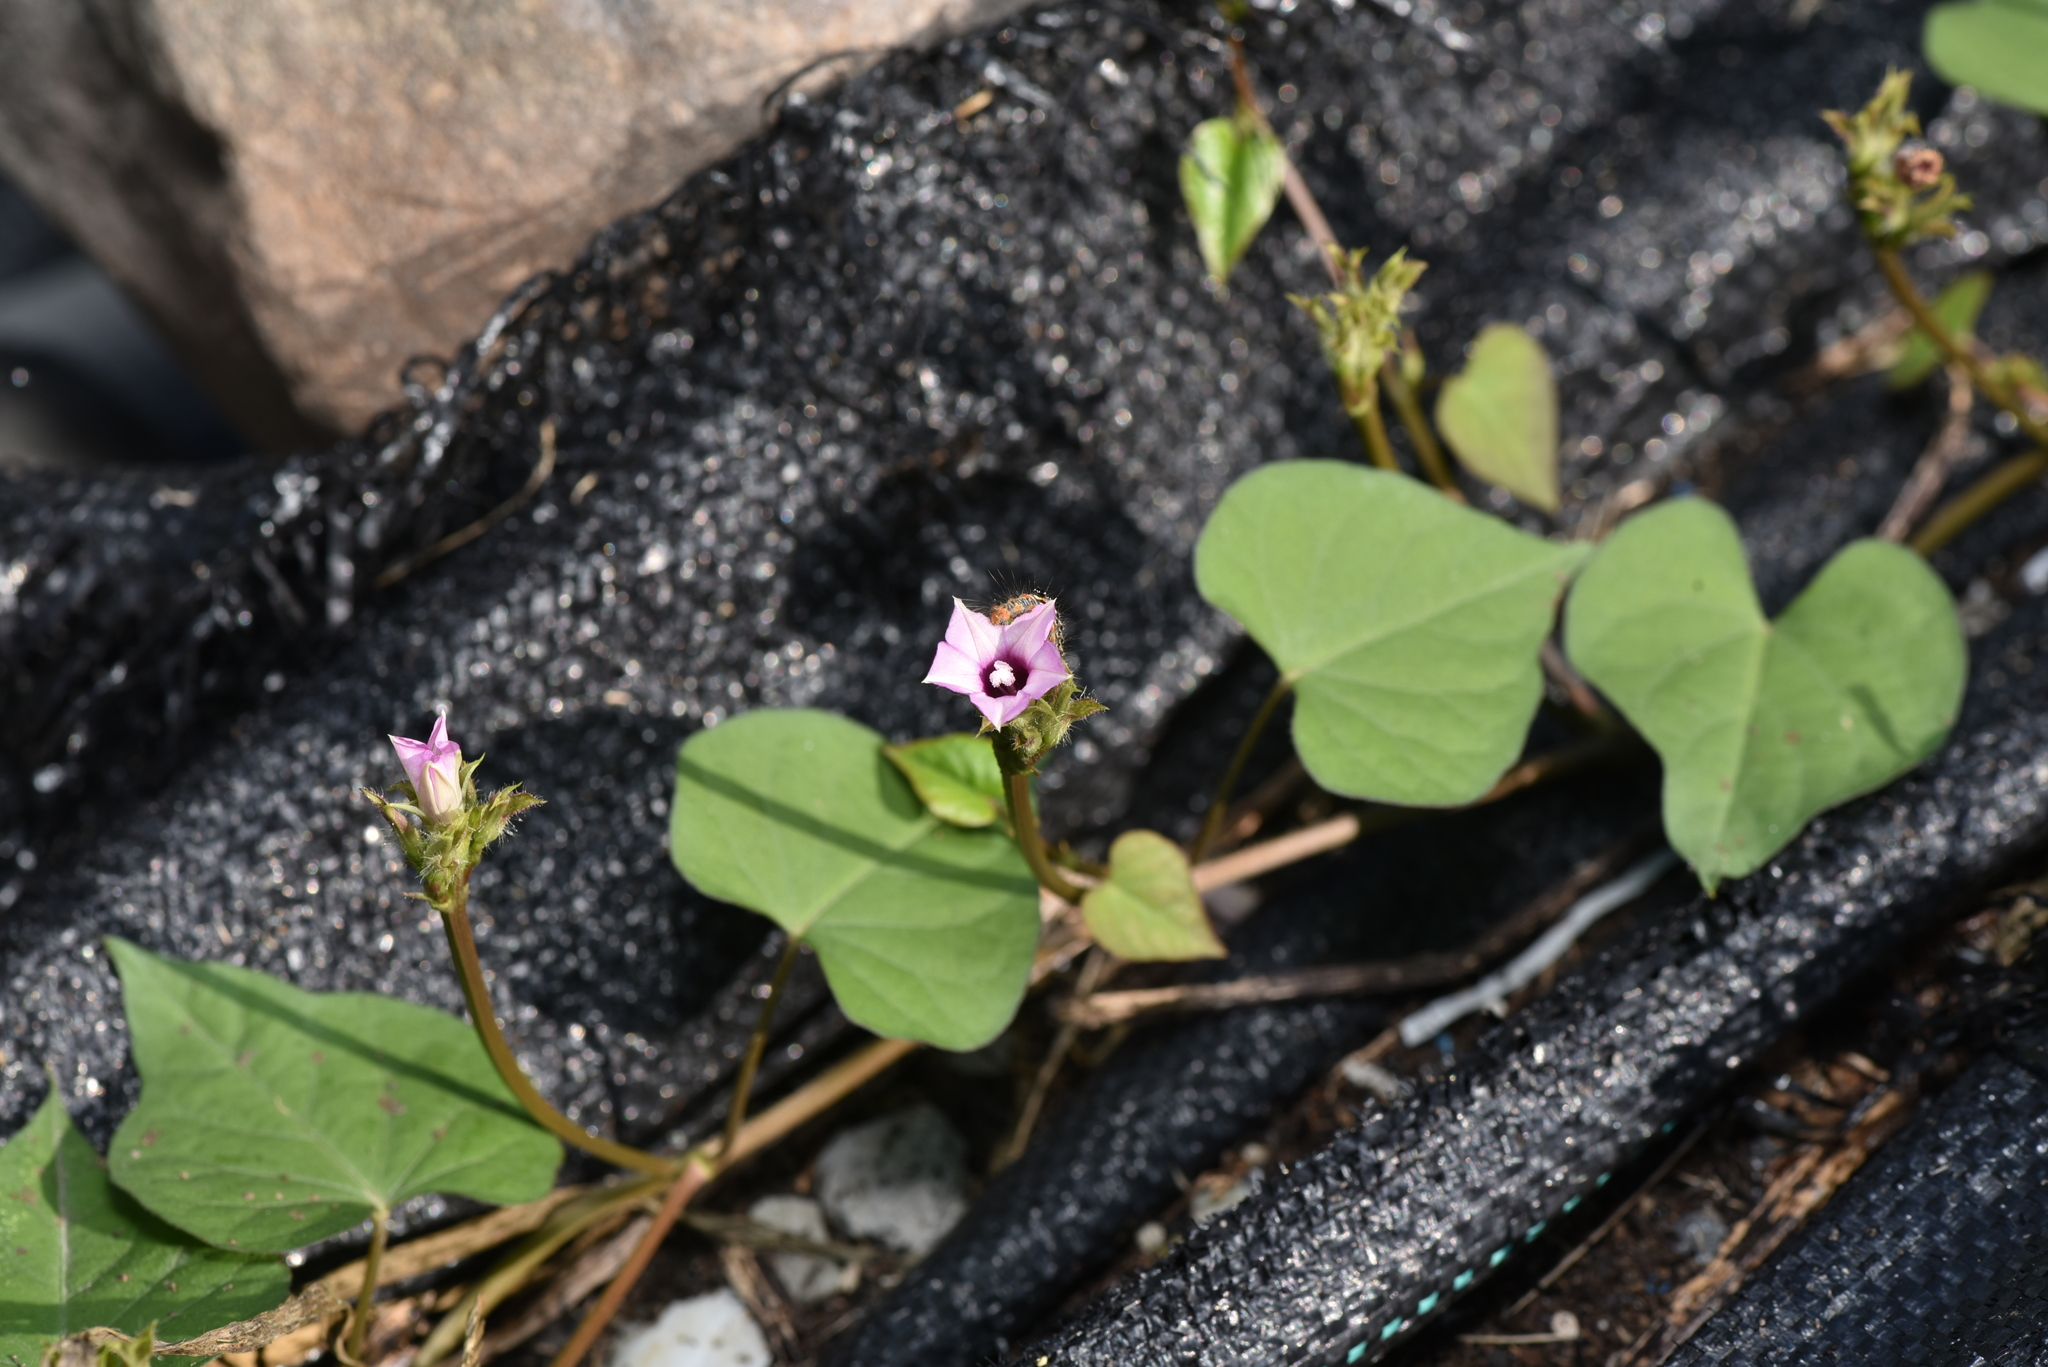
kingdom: Plantae
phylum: Tracheophyta
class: Magnoliopsida
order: Solanales
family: Convolvulaceae
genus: Ipomoea
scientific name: Ipomoea triloba
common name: Little-bell
